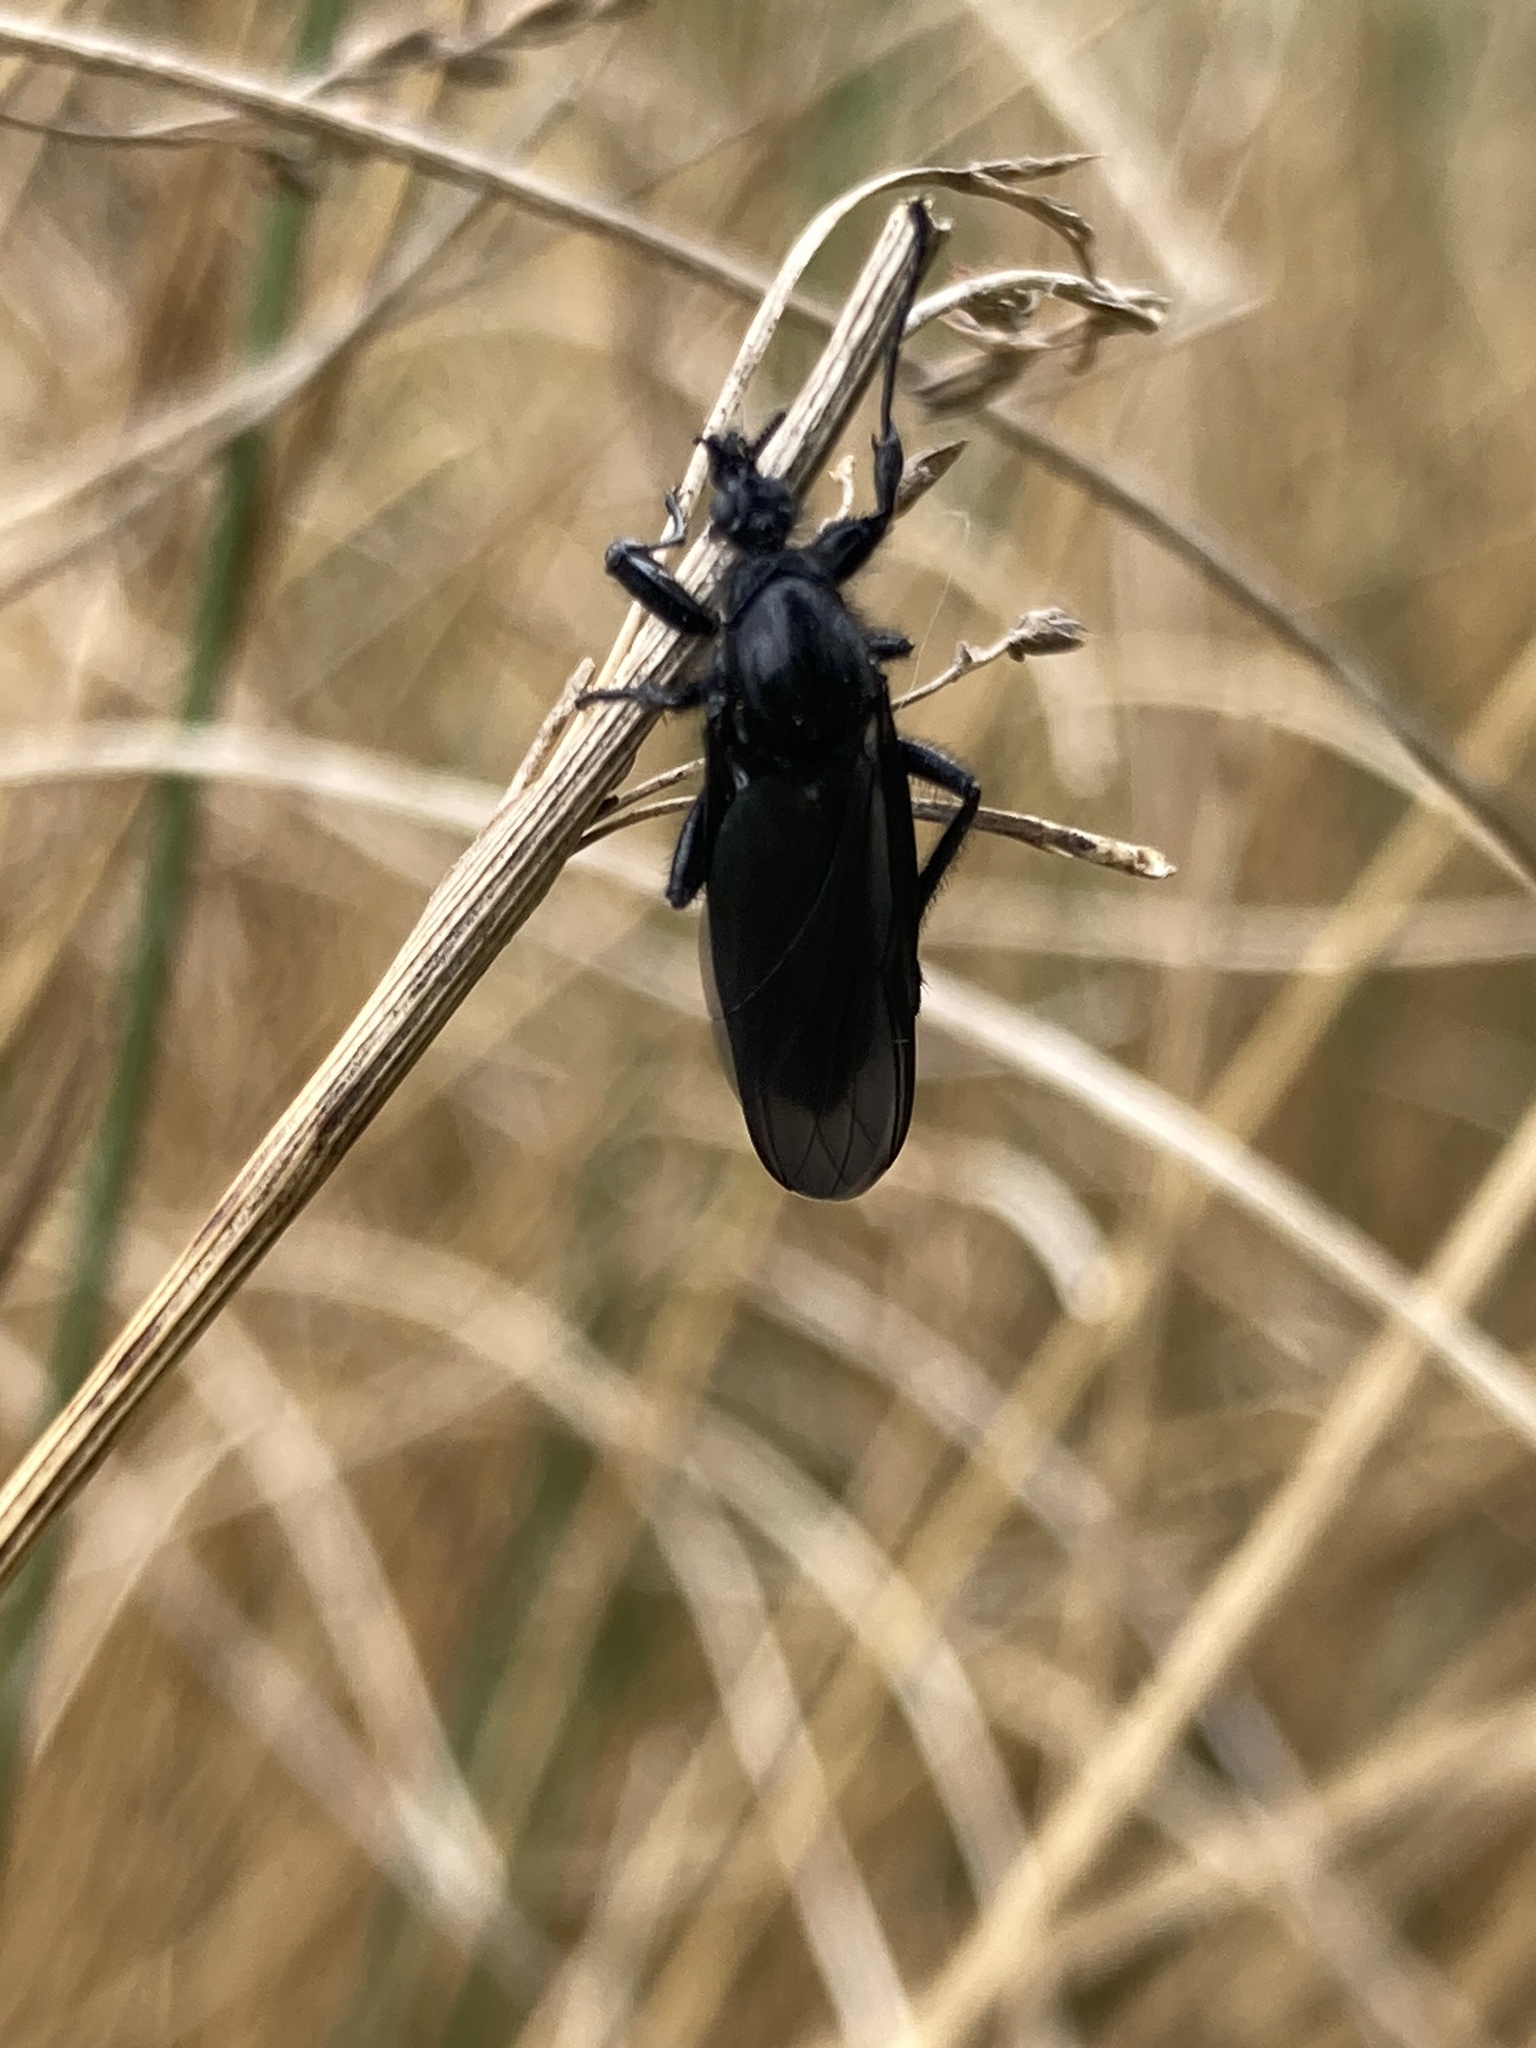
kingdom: Animalia
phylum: Arthropoda
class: Insecta
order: Diptera
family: Bibionidae
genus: Bibio
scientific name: Bibio marci
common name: St marks fly
